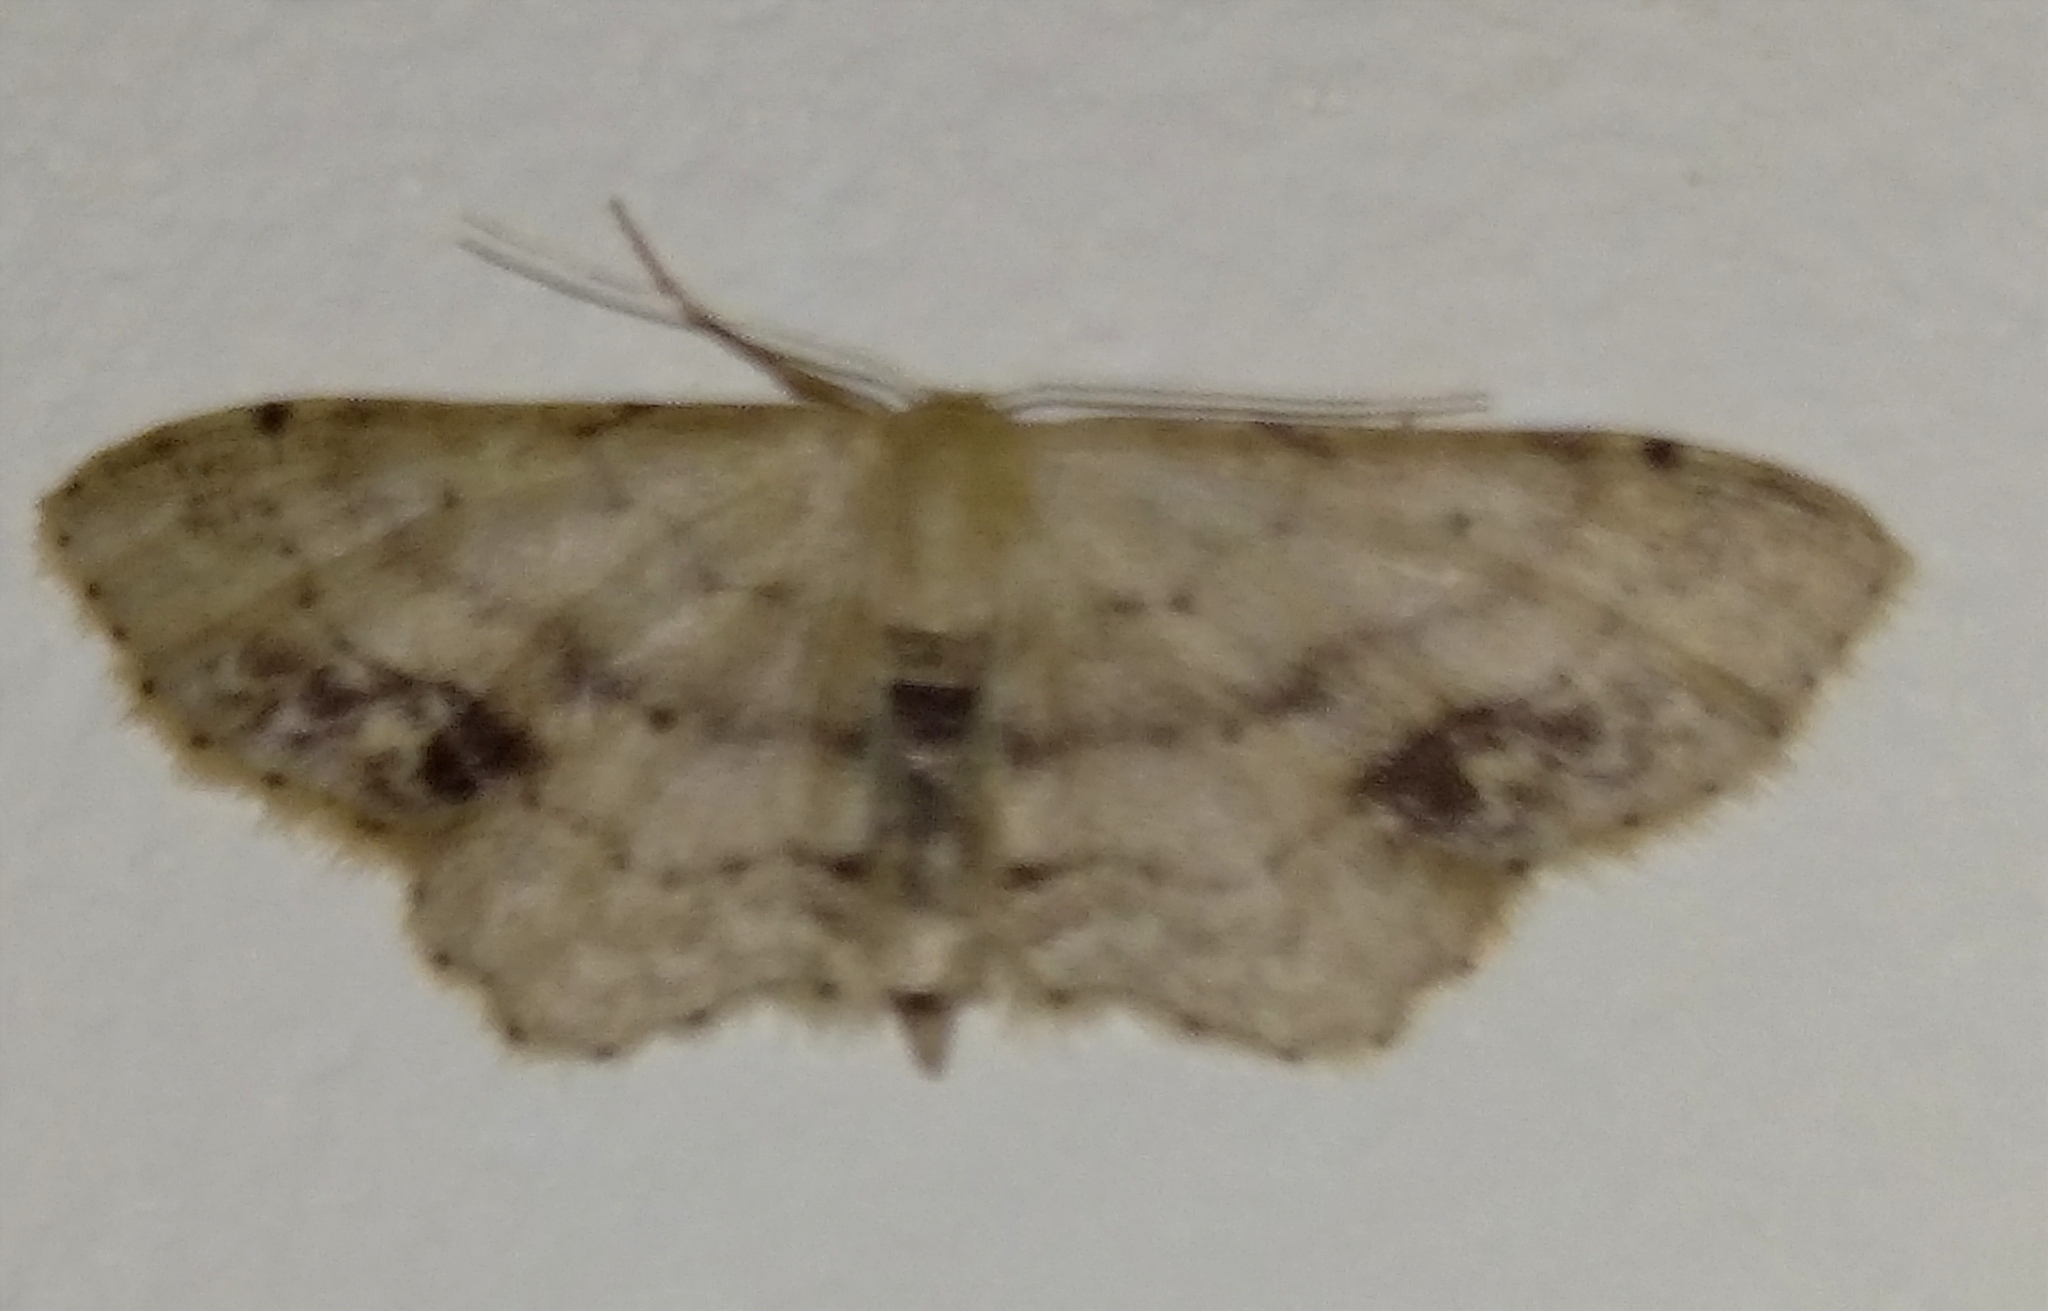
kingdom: Animalia
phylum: Arthropoda
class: Insecta
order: Lepidoptera
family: Geometridae
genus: Idaea
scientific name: Idaea dimidiata
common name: Single-dotted wave
